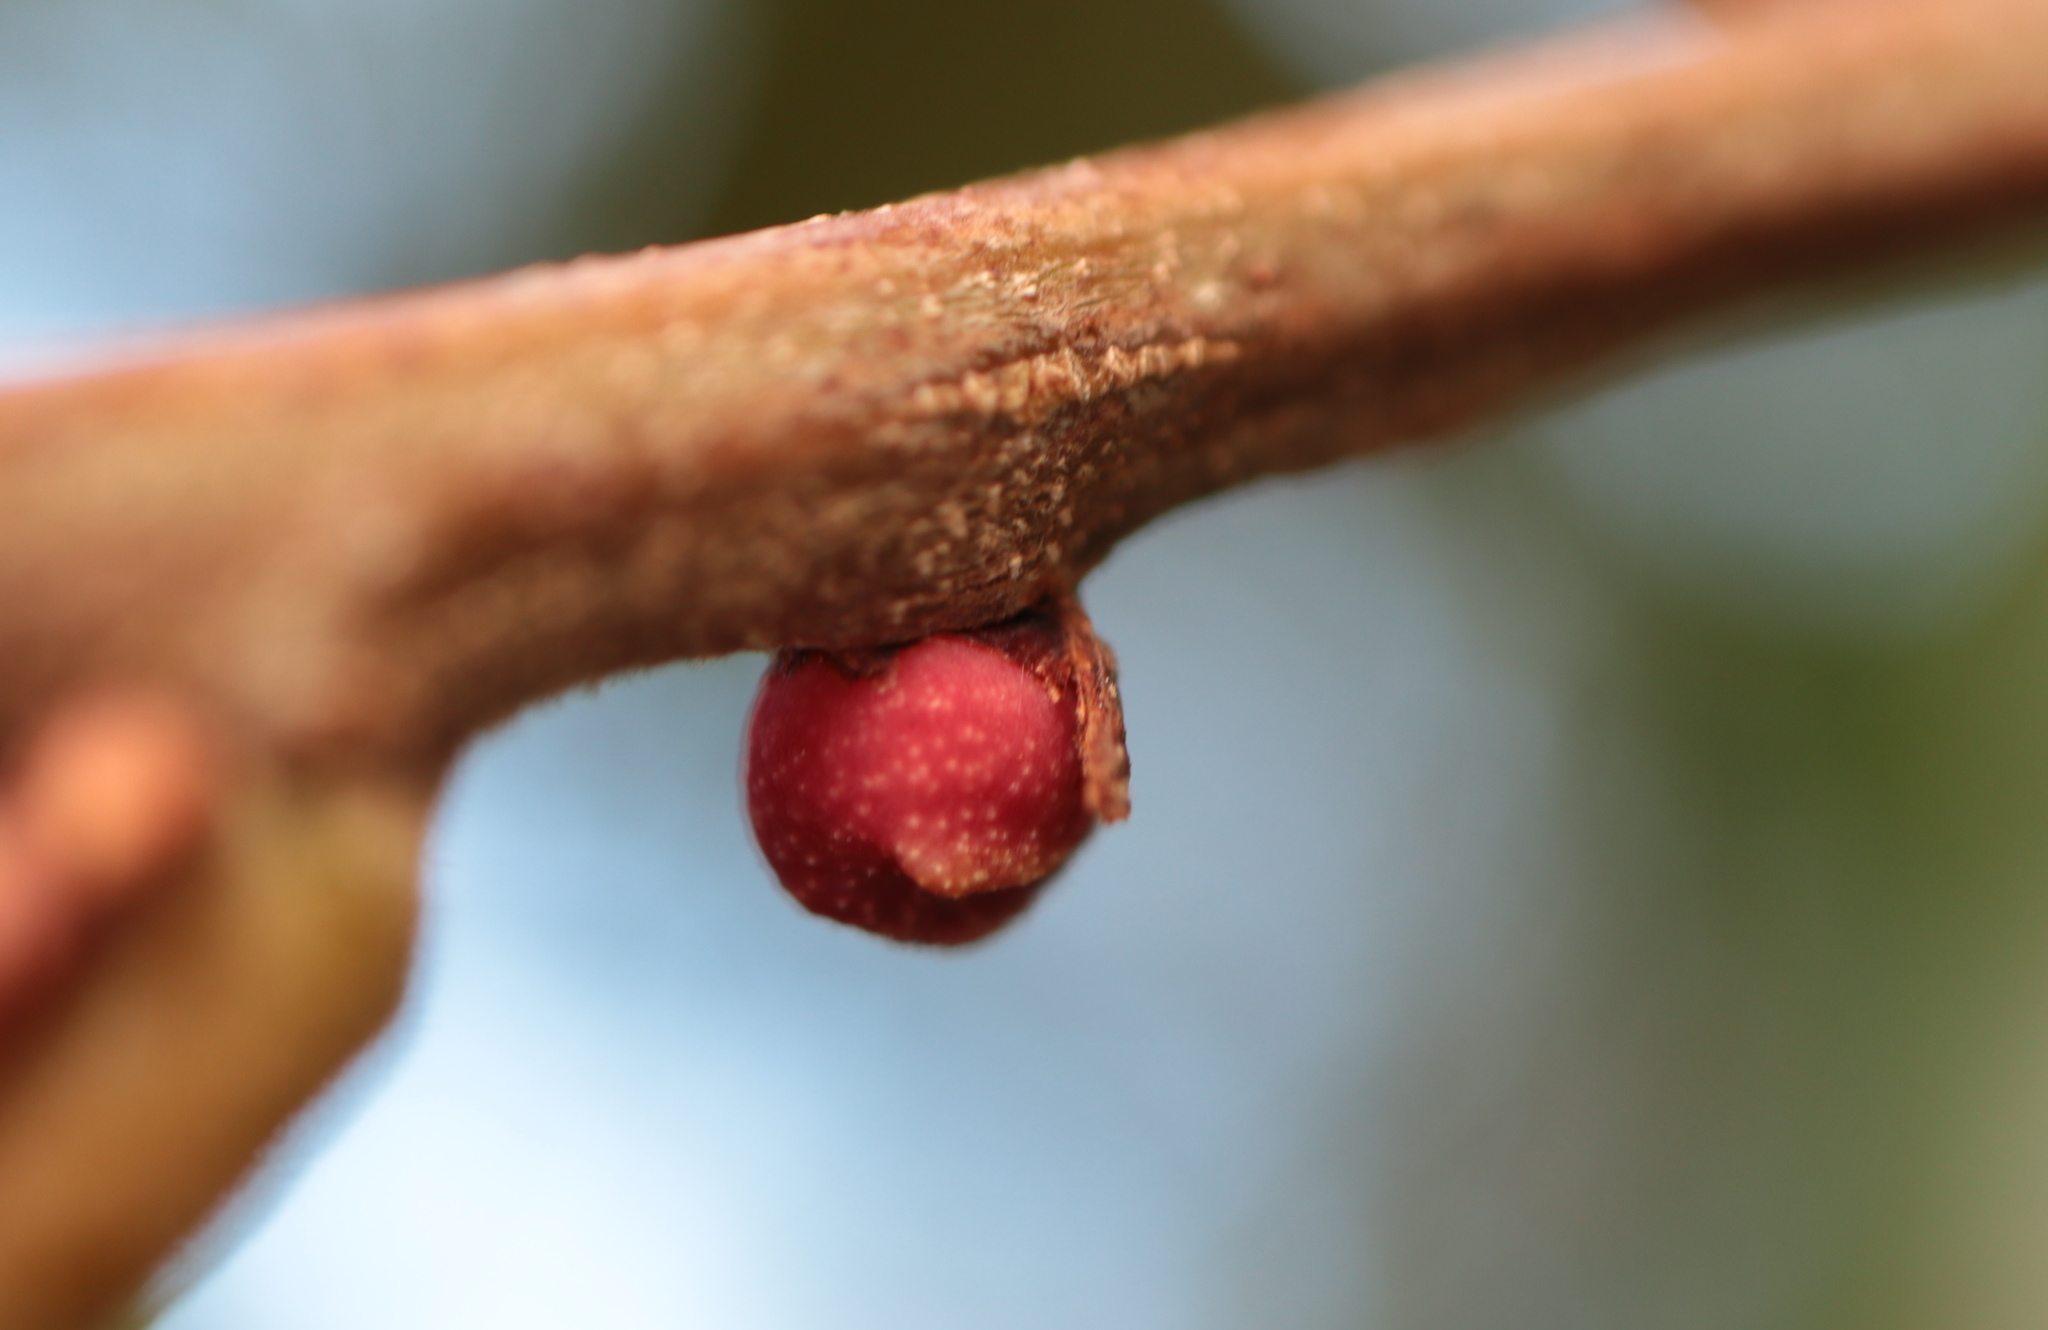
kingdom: Animalia
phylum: Arthropoda
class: Insecta
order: Hymenoptera
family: Cynipidae
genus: Kokkocynips
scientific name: Kokkocynips imbricariae
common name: Banded bullet gall wasp
